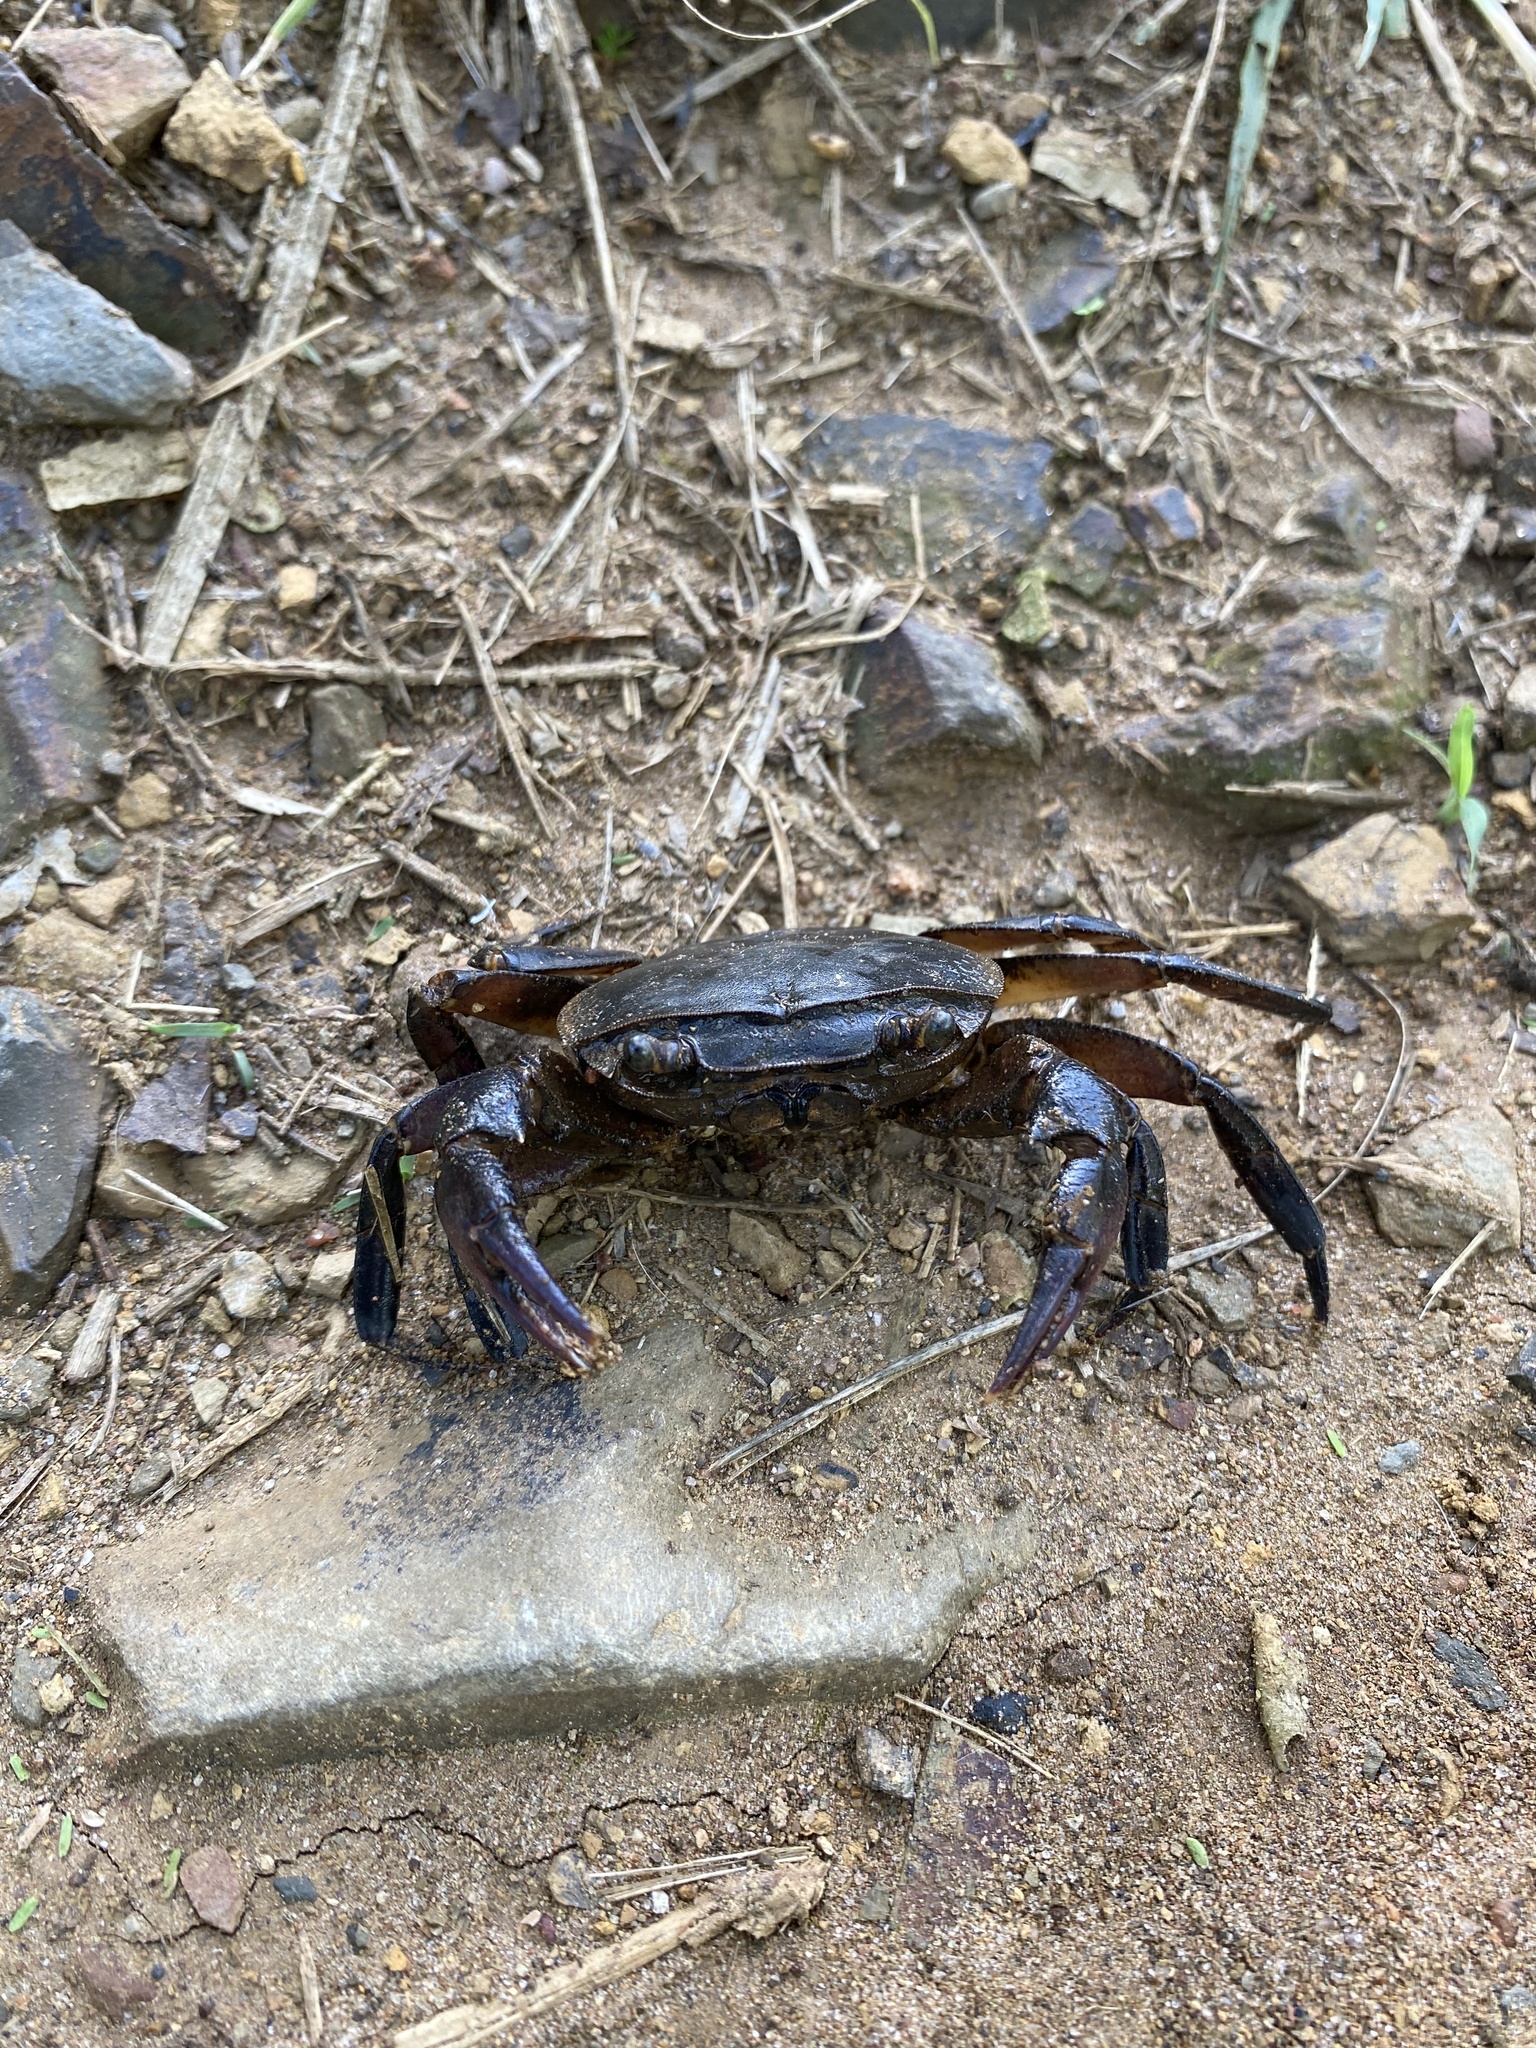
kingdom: Animalia
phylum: Arthropoda
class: Malacostraca
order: Decapoda
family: Potamonautidae
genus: Potamonautes
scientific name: Potamonautes sidneyi
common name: Natal river crab
